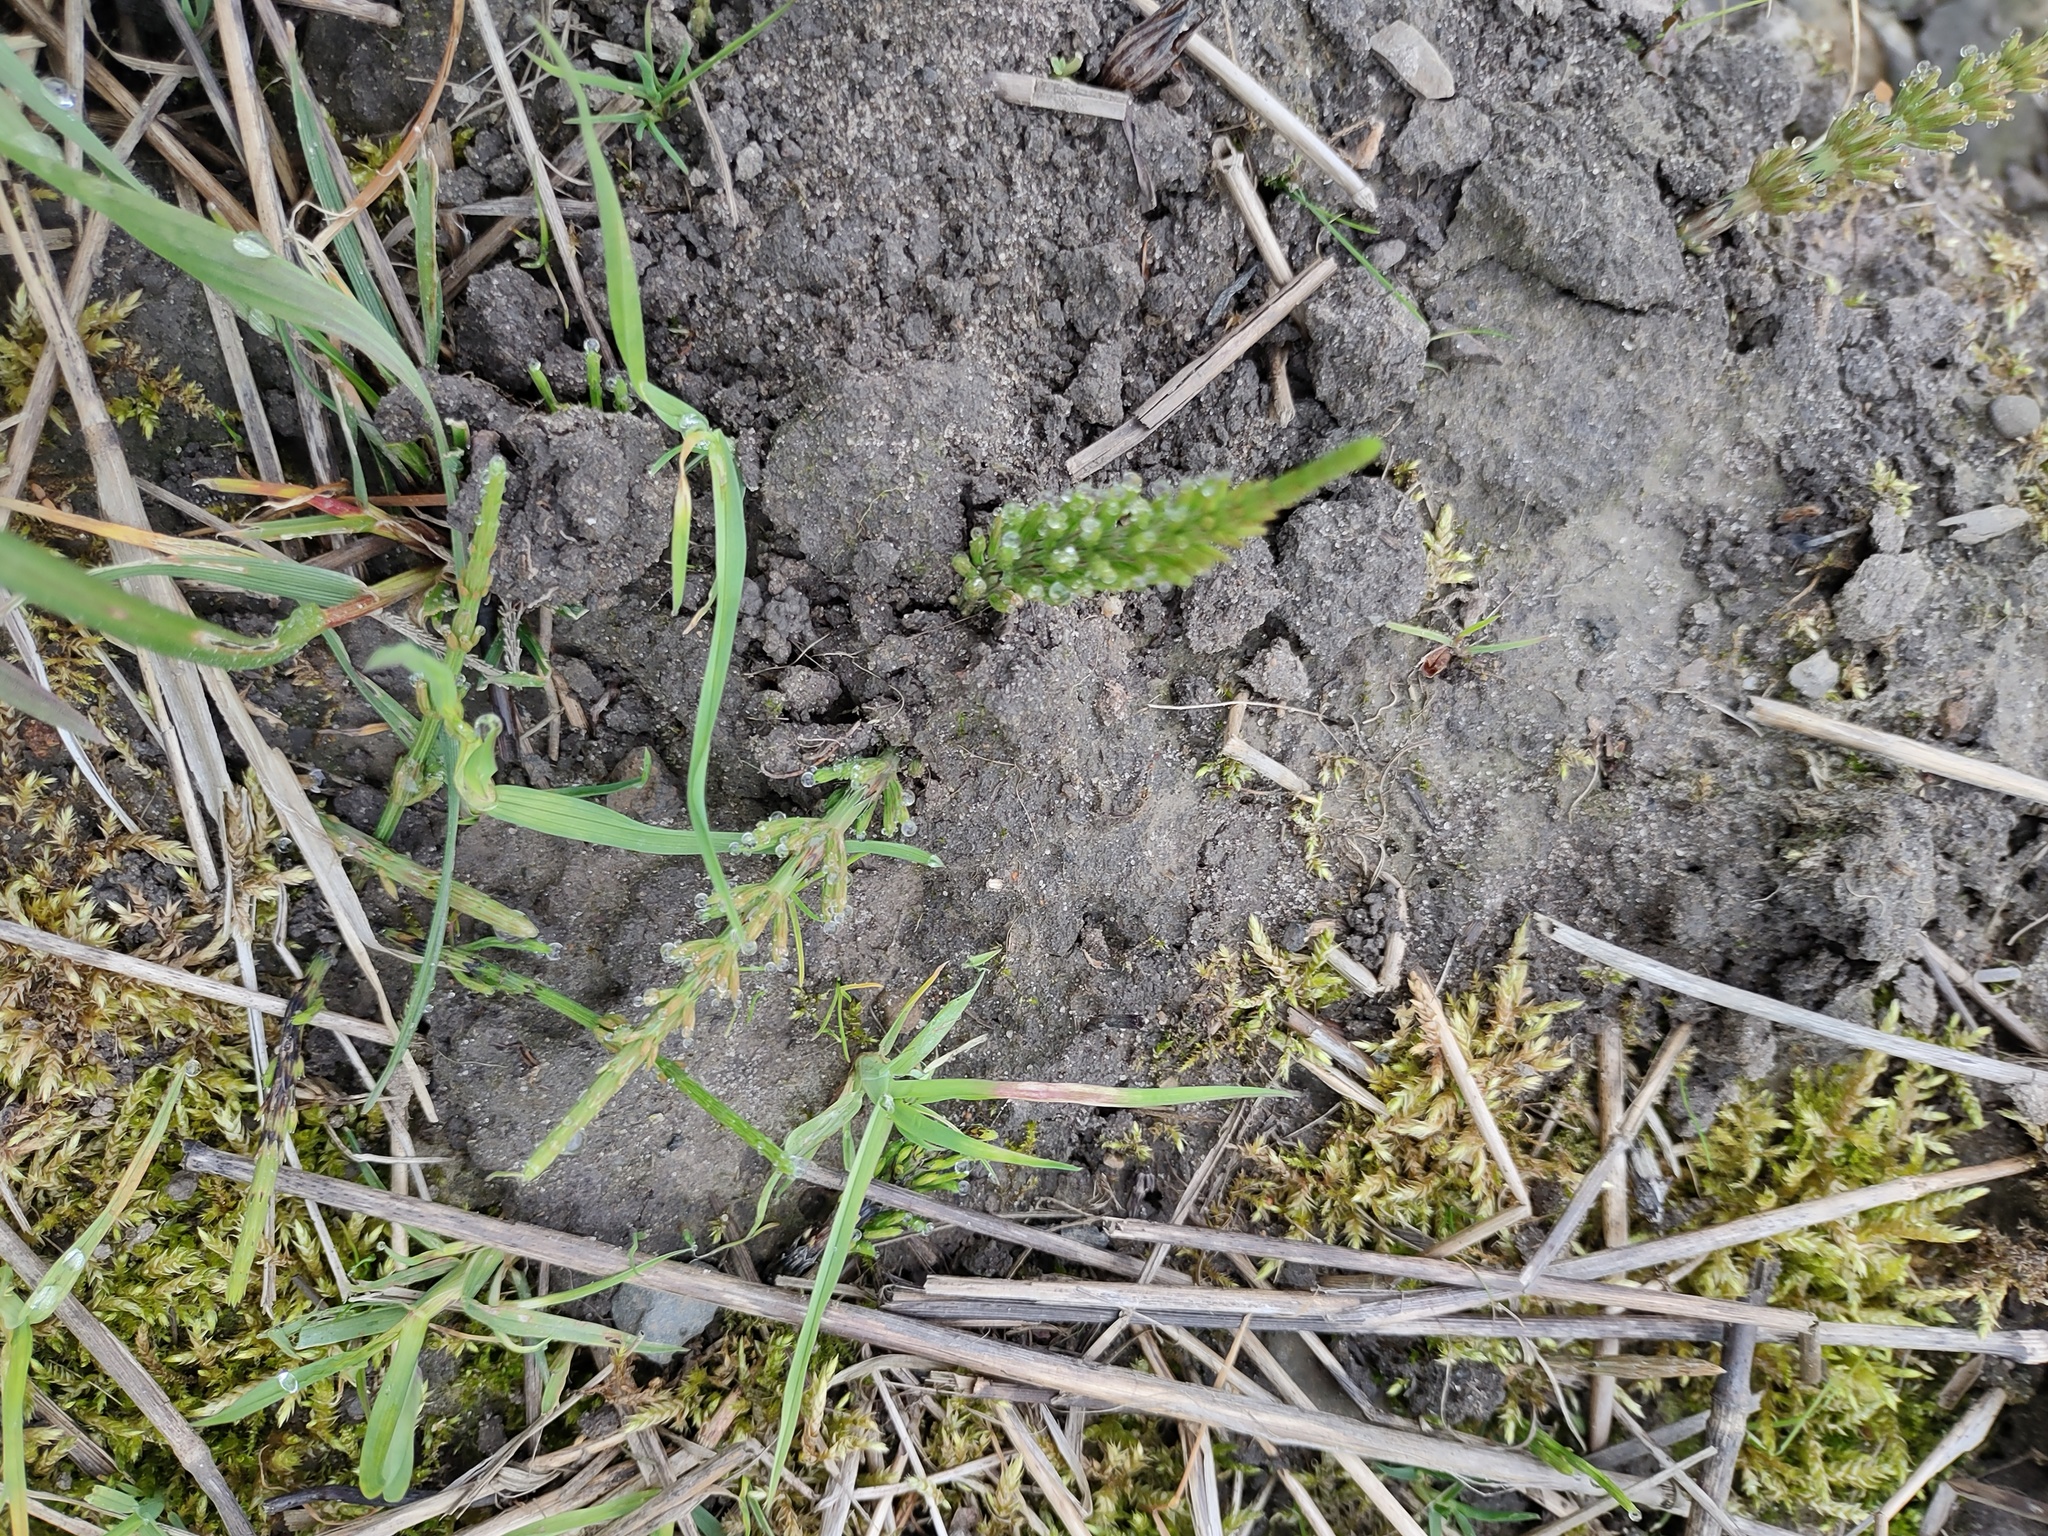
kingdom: Plantae
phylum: Tracheophyta
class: Polypodiopsida
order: Equisetales
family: Equisetaceae
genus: Equisetum
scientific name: Equisetum arvense
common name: Field horsetail
